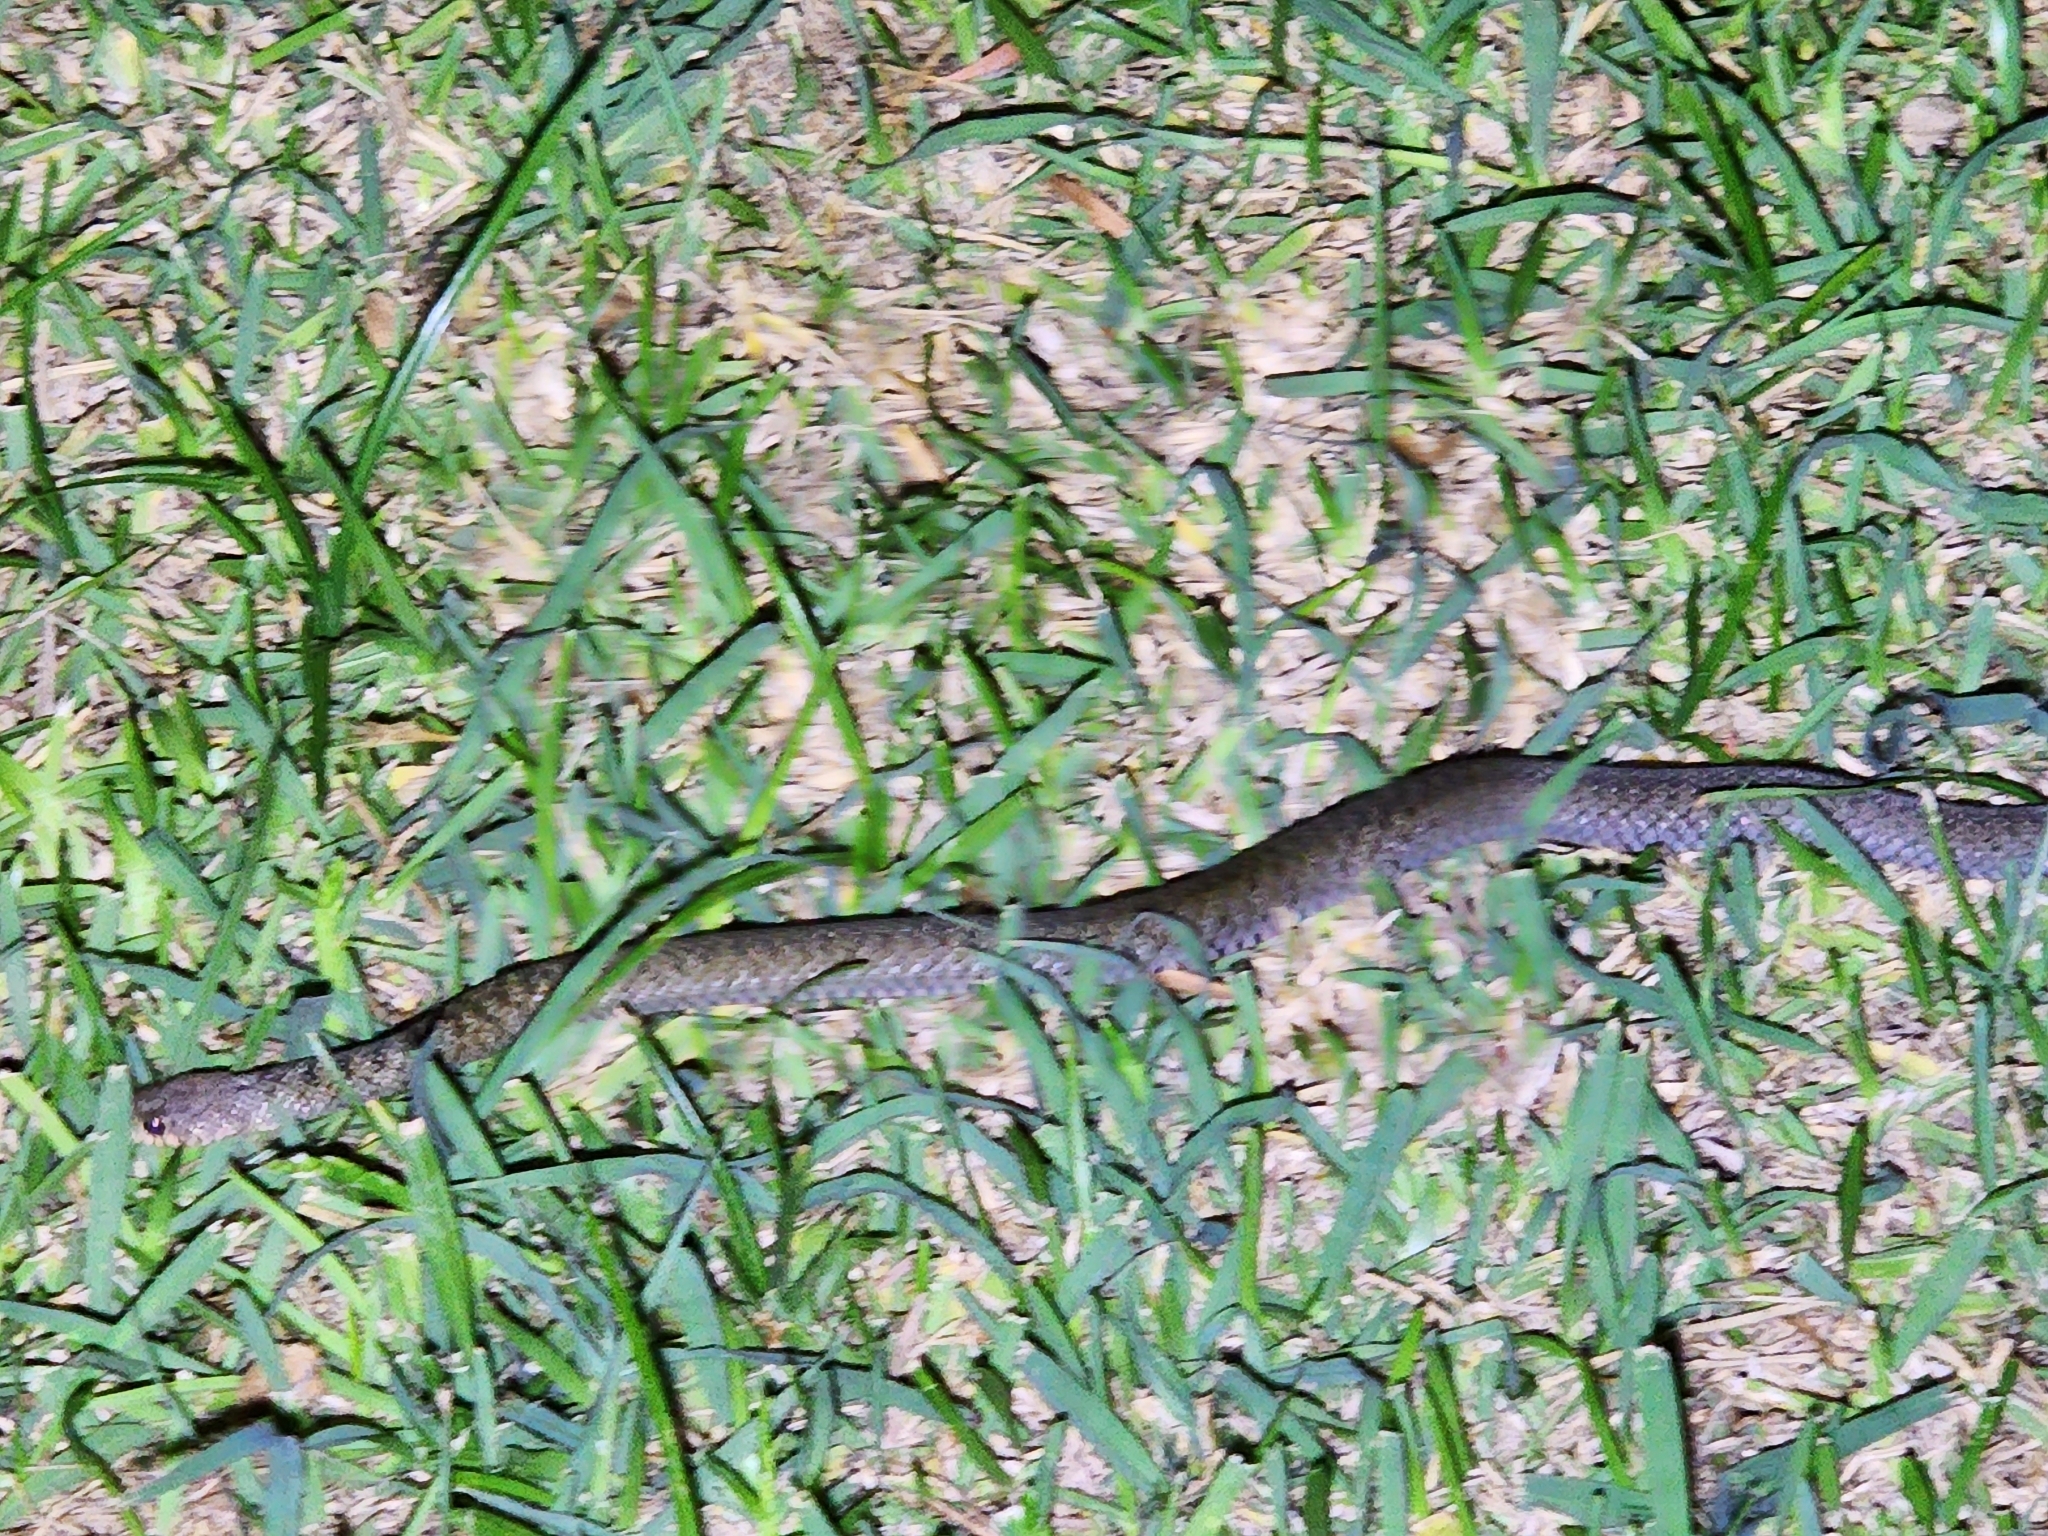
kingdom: Animalia
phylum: Chordata
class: Squamata
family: Colubridae
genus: Tropidonophis
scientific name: Tropidonophis mairii
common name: Common keelback
